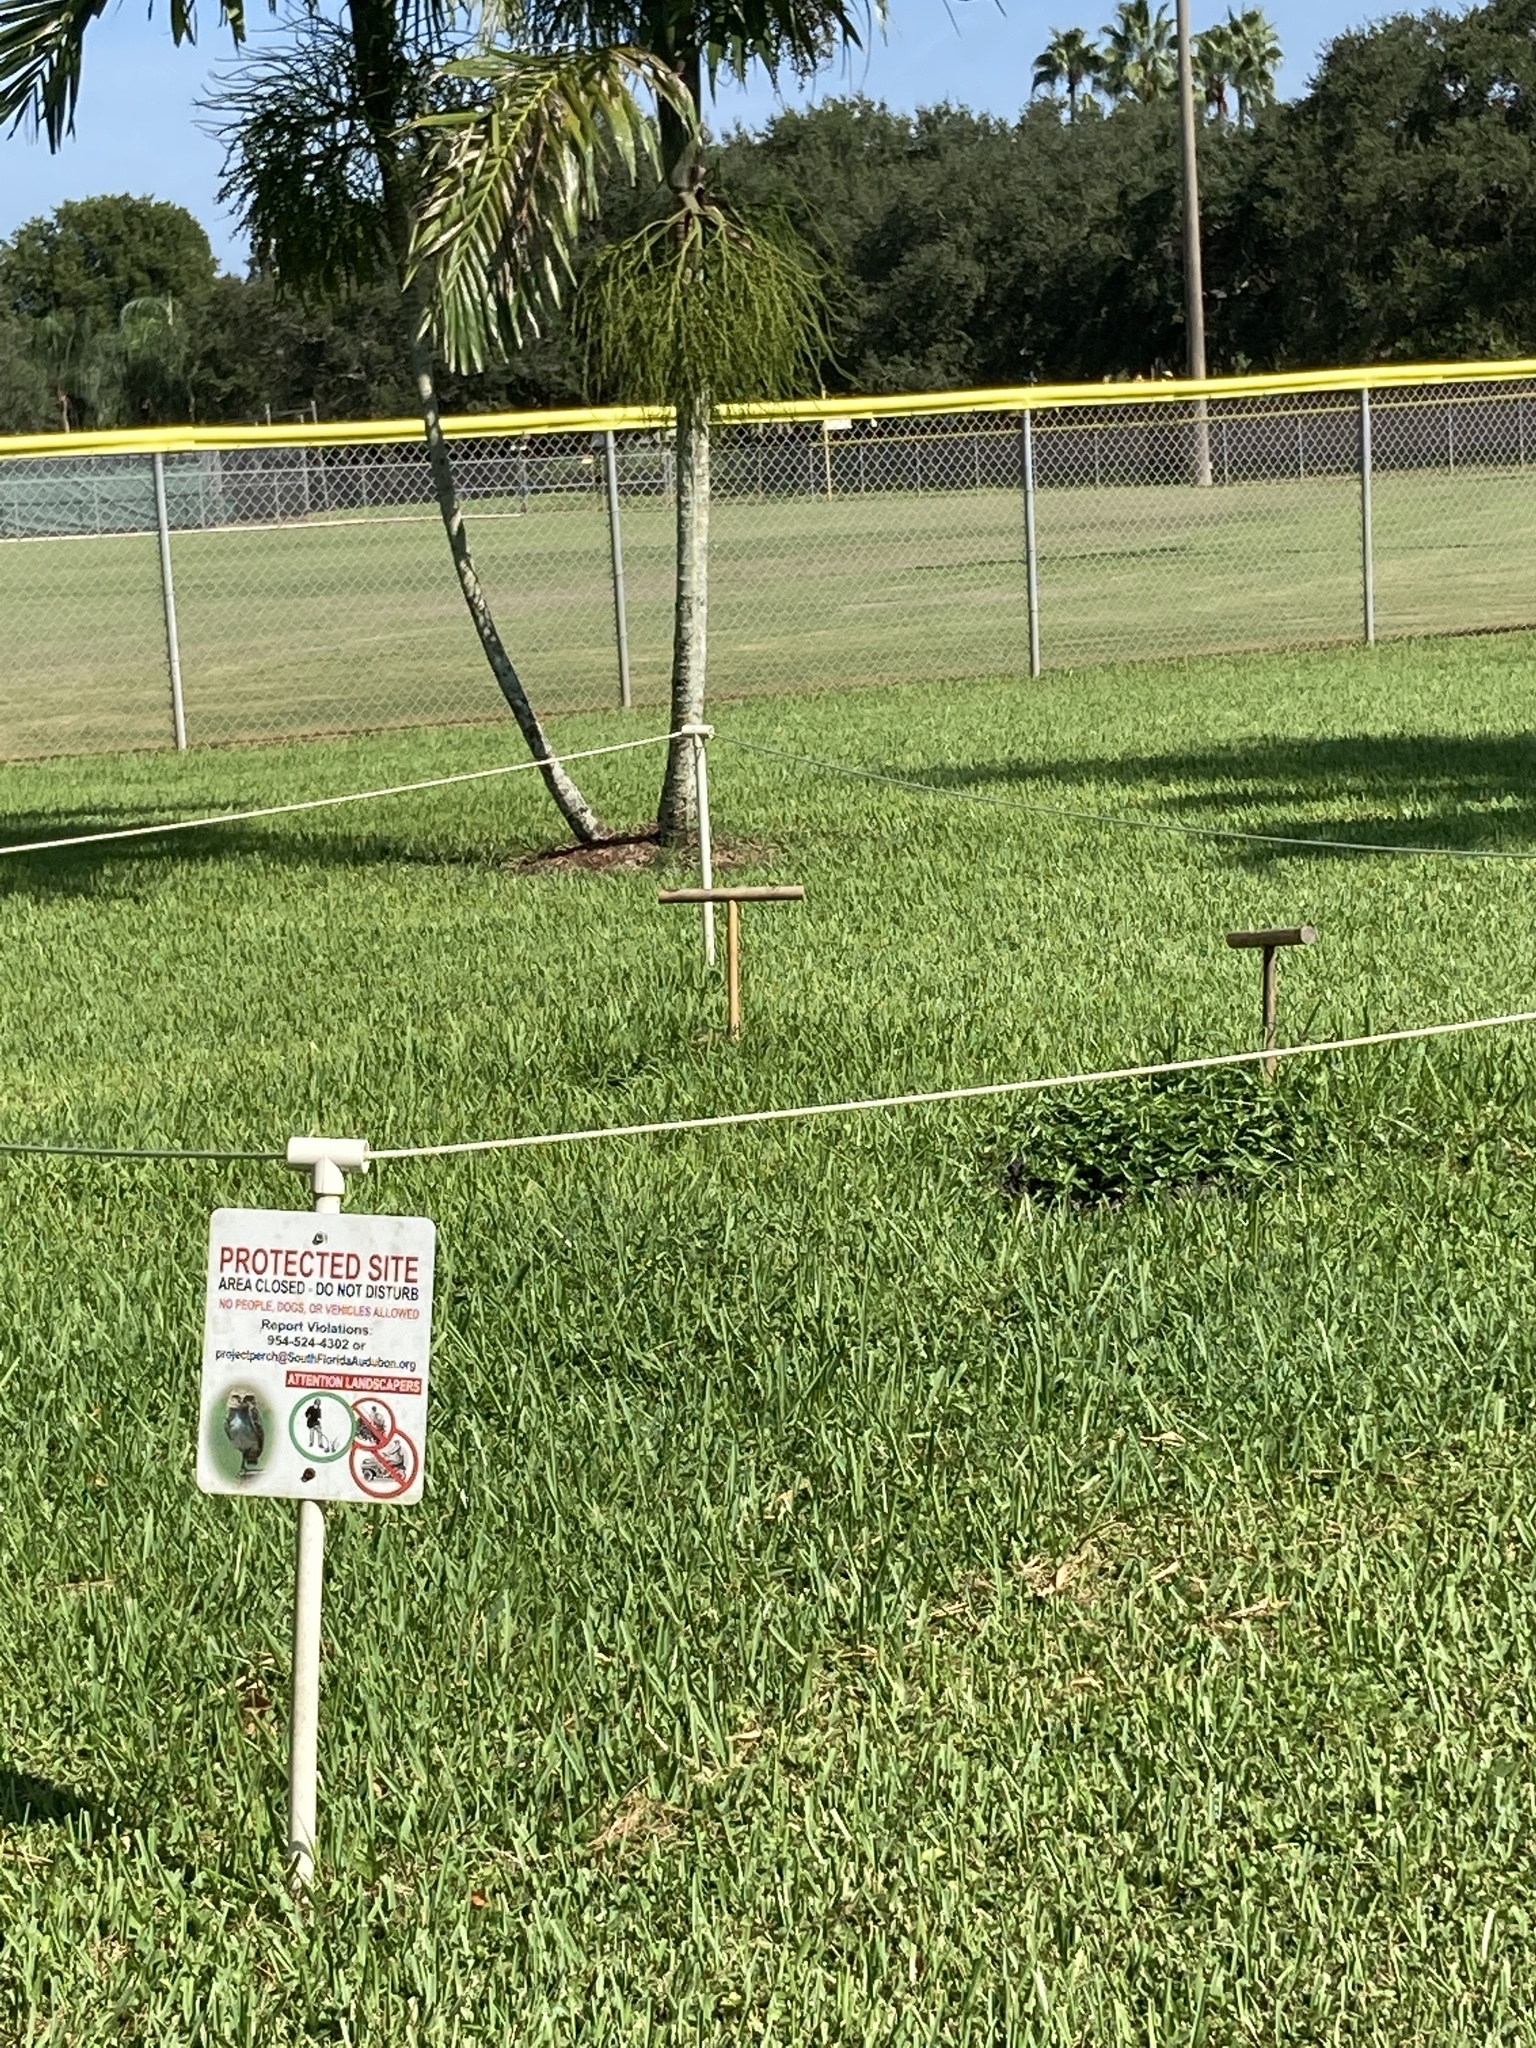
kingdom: Animalia
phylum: Chordata
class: Aves
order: Strigiformes
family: Strigidae
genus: Athene
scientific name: Athene cunicularia
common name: Burrowing owl
